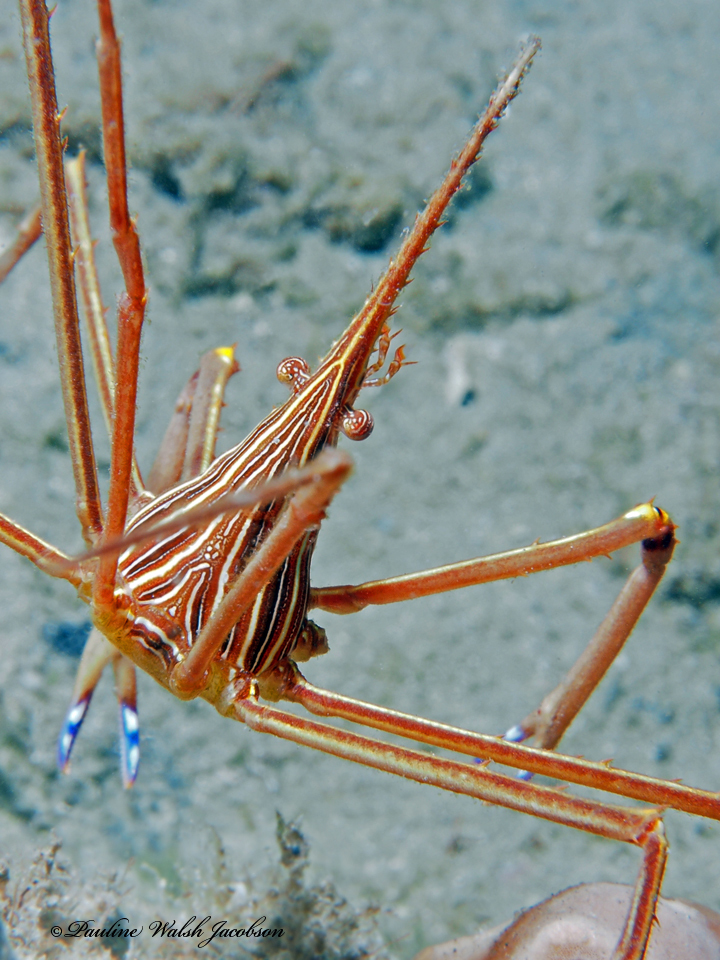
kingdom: Animalia
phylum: Arthropoda
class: Malacostraca
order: Decapoda
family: Inachoididae
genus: Stenorhynchus
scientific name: Stenorhynchus seticornis
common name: Arrow crab
